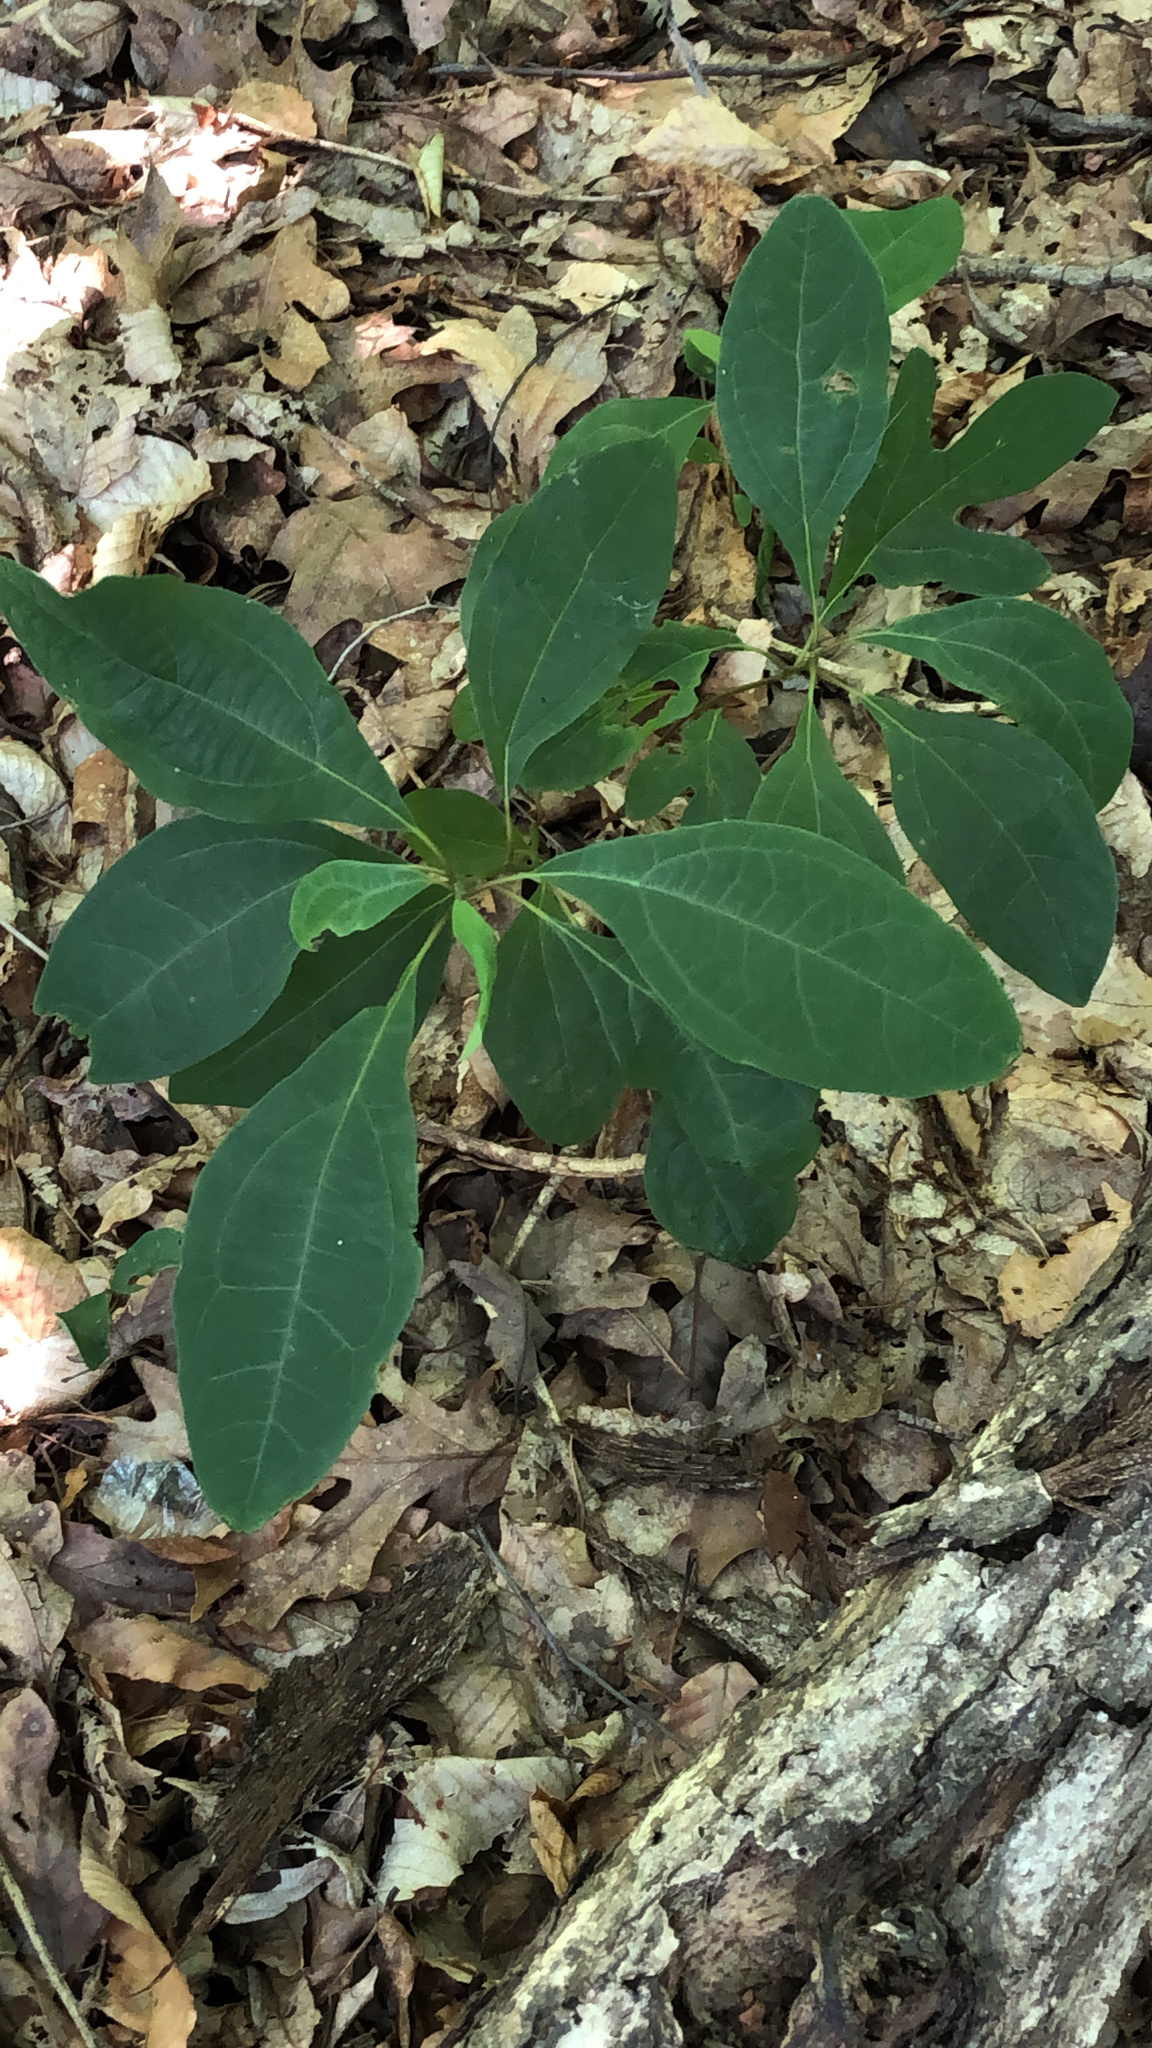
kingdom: Plantae
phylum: Tracheophyta
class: Magnoliopsida
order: Laurales
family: Lauraceae
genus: Sassafras
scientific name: Sassafras albidum
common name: Sassafras
